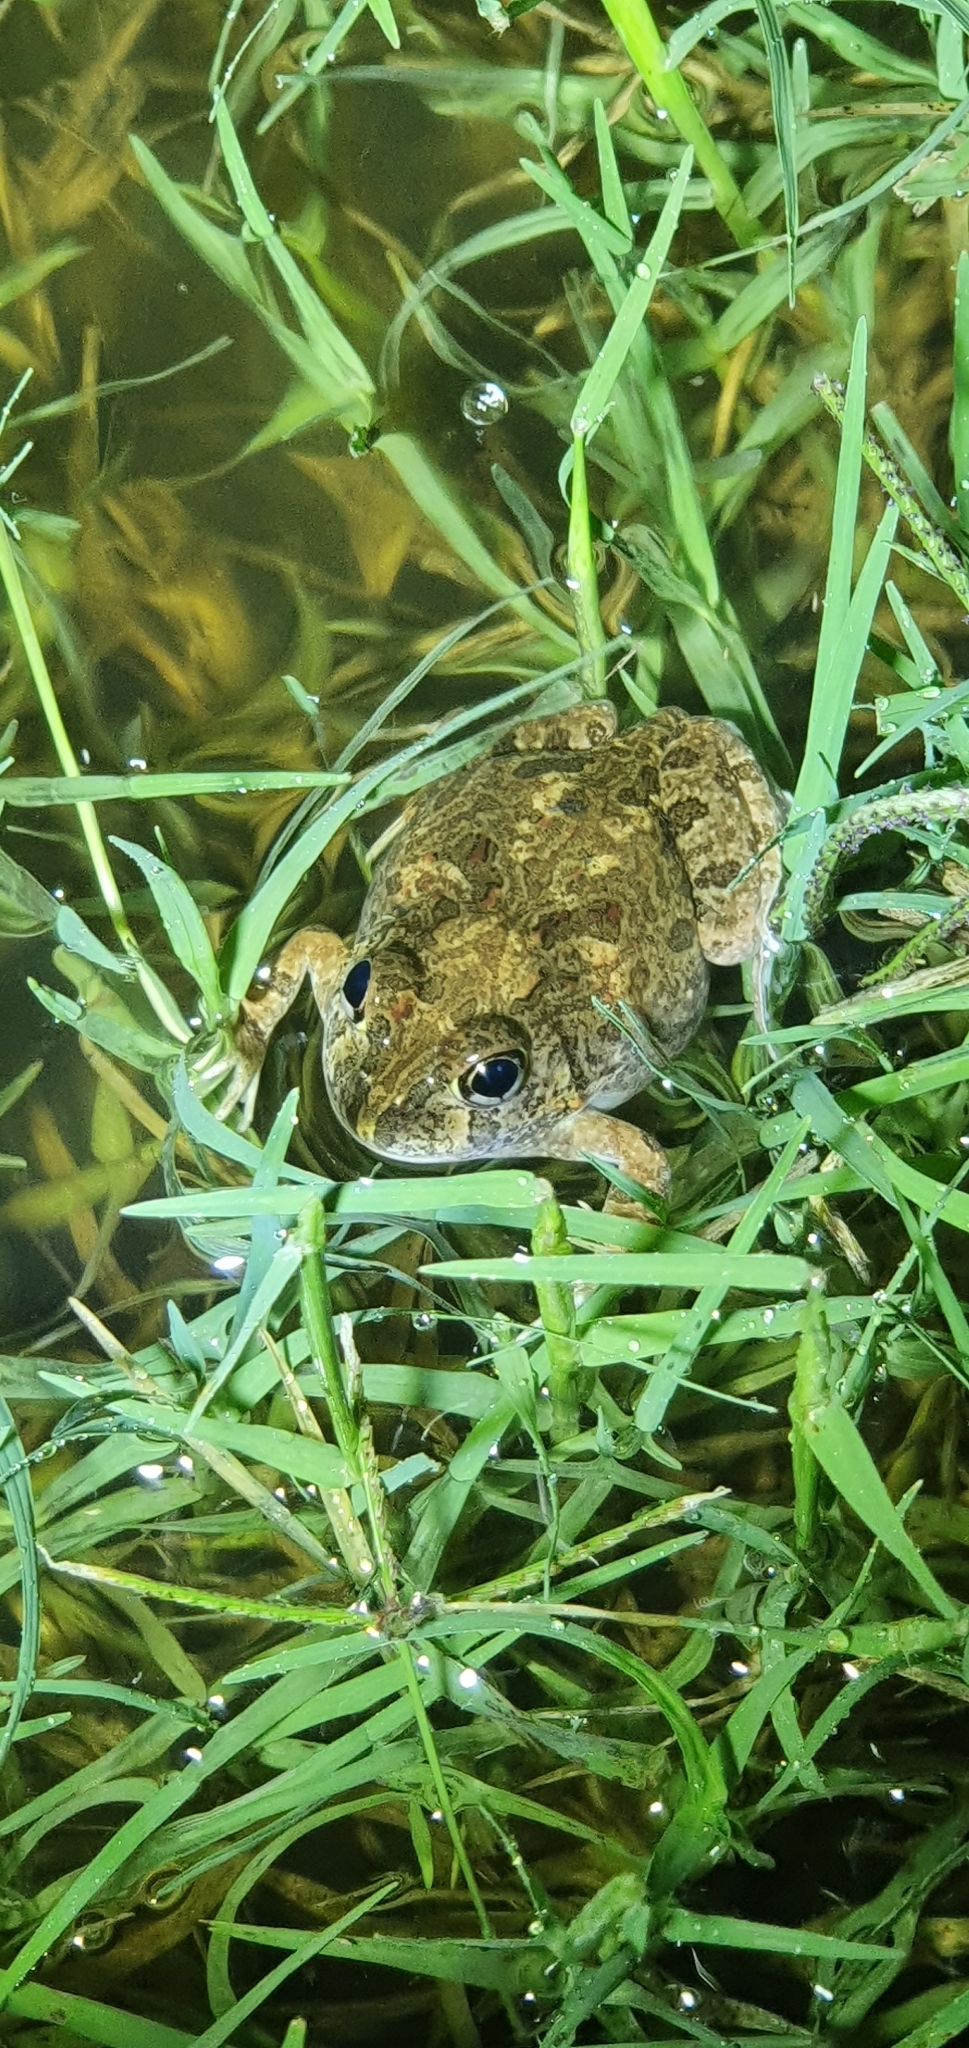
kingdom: Animalia
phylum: Chordata
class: Amphibia
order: Anura
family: Limnodynastidae
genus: Platyplectrum
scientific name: Platyplectrum ornatum
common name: Ornate burrowing frog
